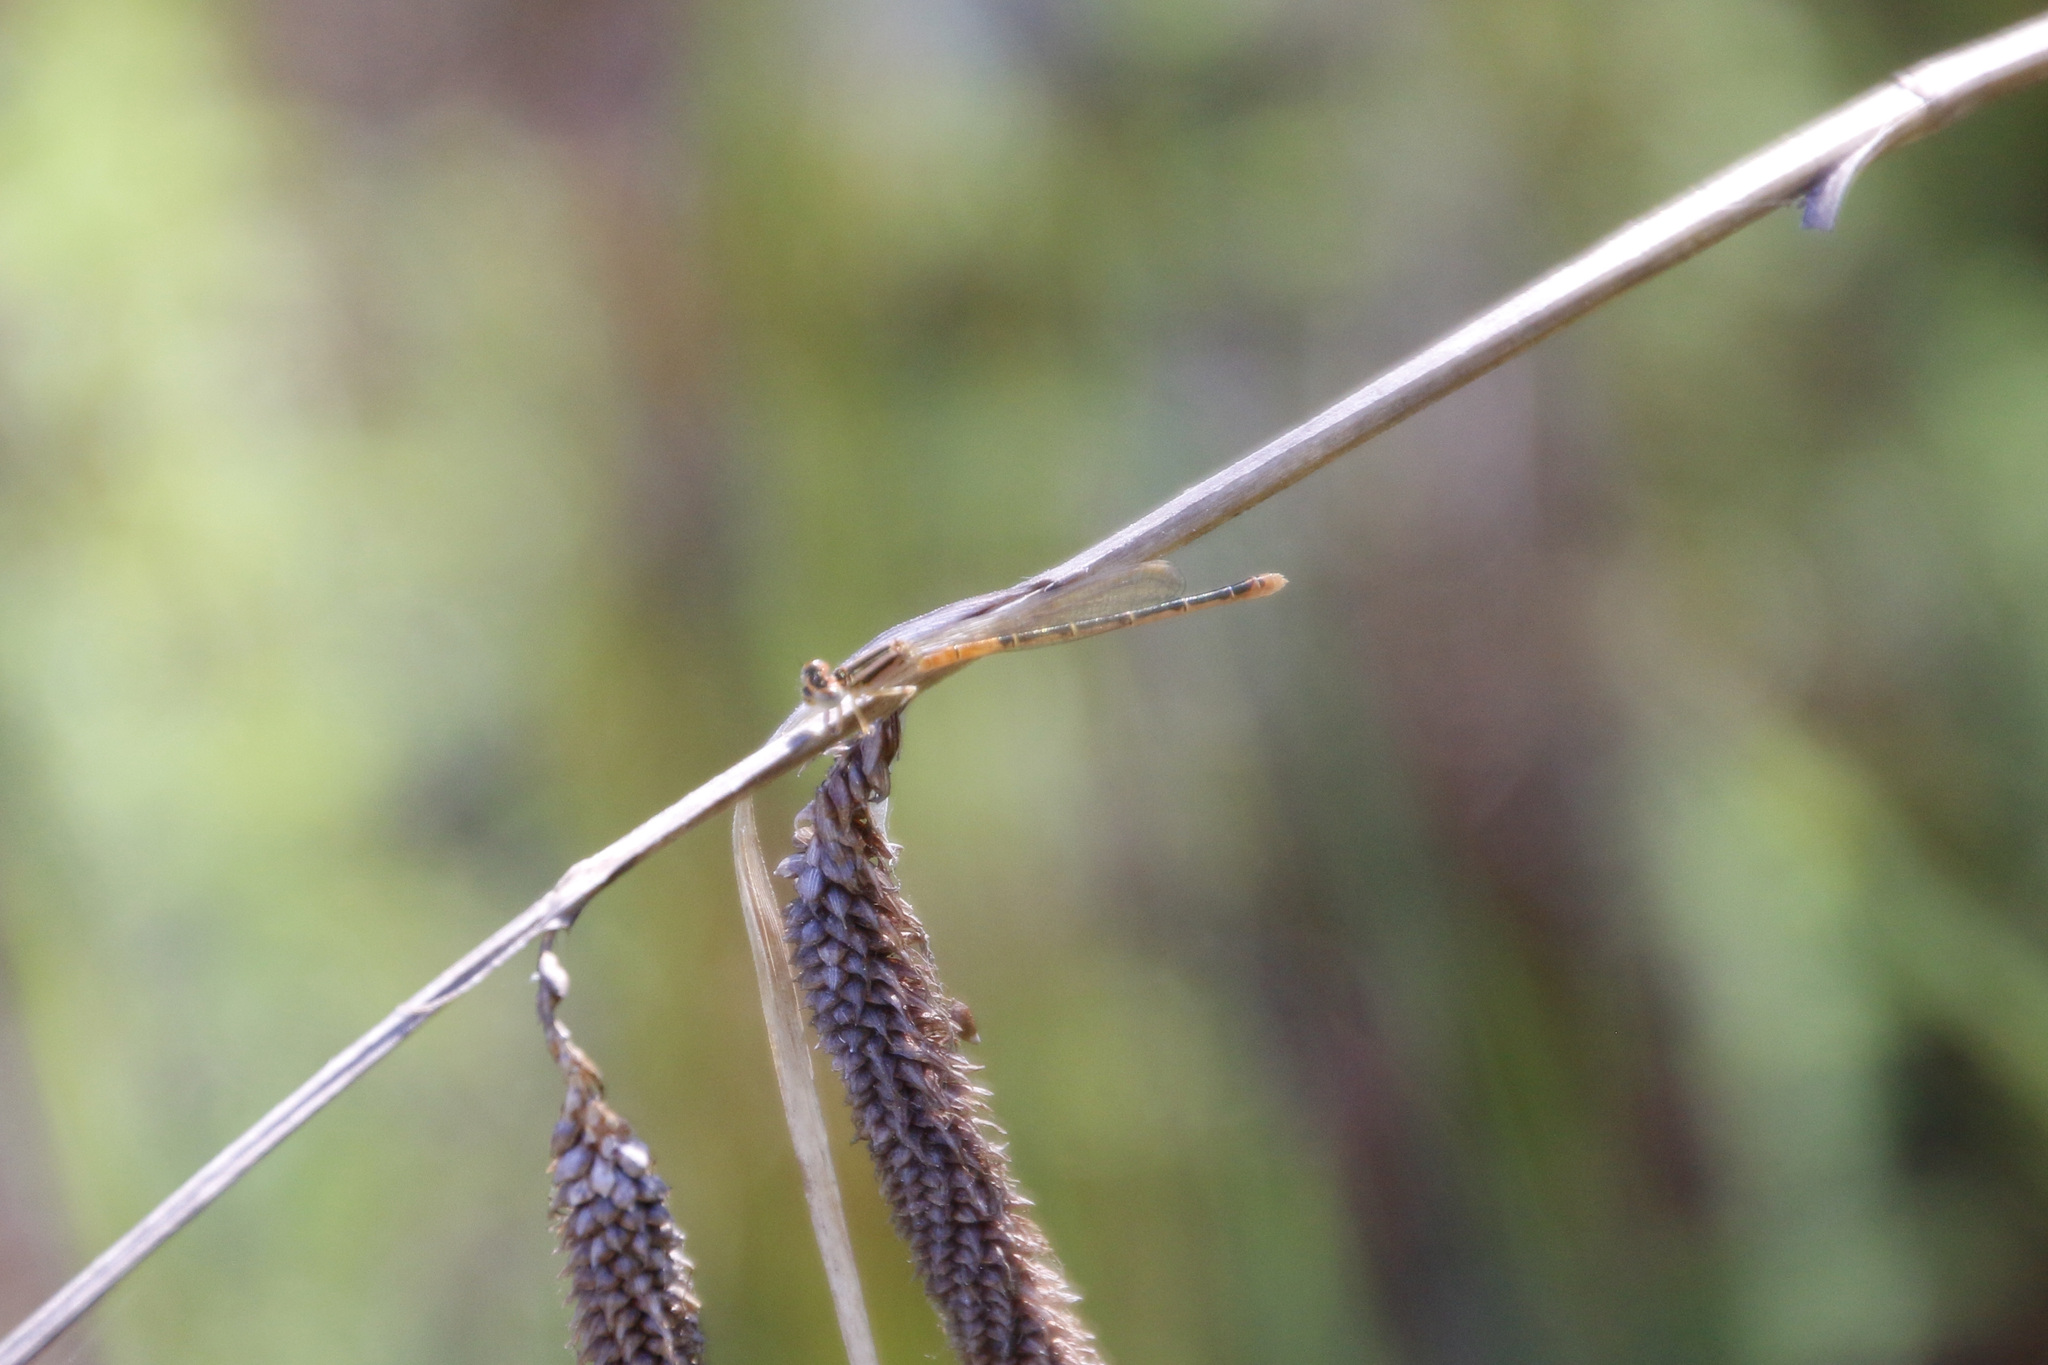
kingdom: Animalia
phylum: Arthropoda
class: Insecta
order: Odonata
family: Coenagrionidae
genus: Ischnura
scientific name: Ischnura perparva
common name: Western forktail
